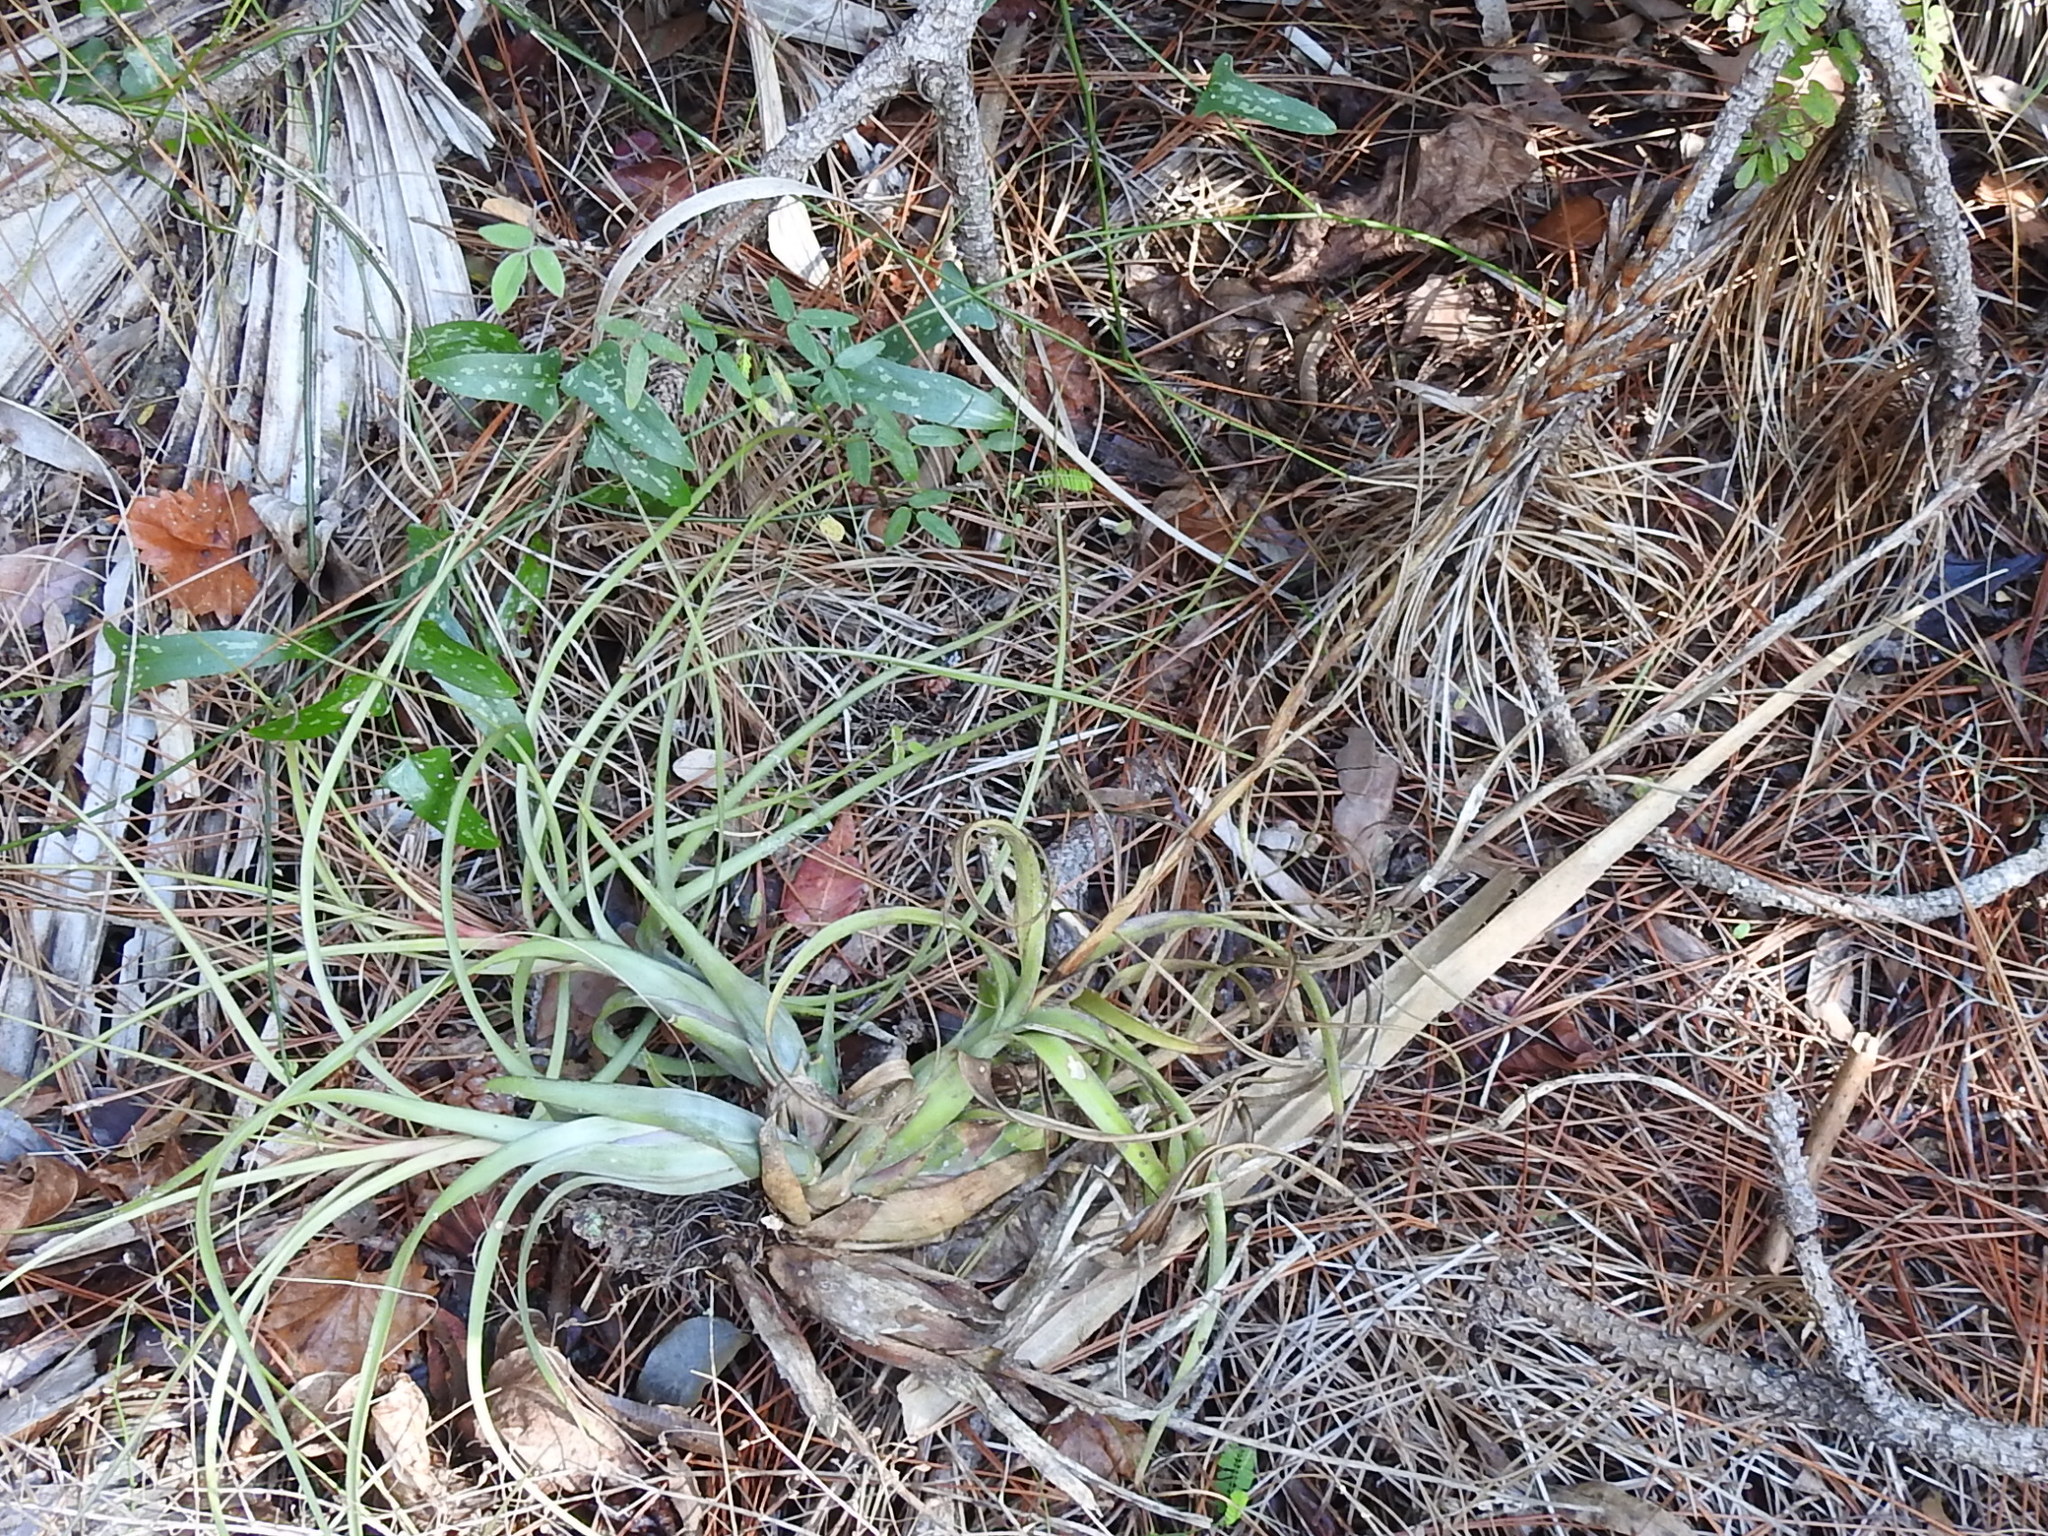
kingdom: Plantae
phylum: Tracheophyta
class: Liliopsida
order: Poales
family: Bromeliaceae
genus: Tillandsia
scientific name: Tillandsia balbisiana
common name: Northern needleleaf
